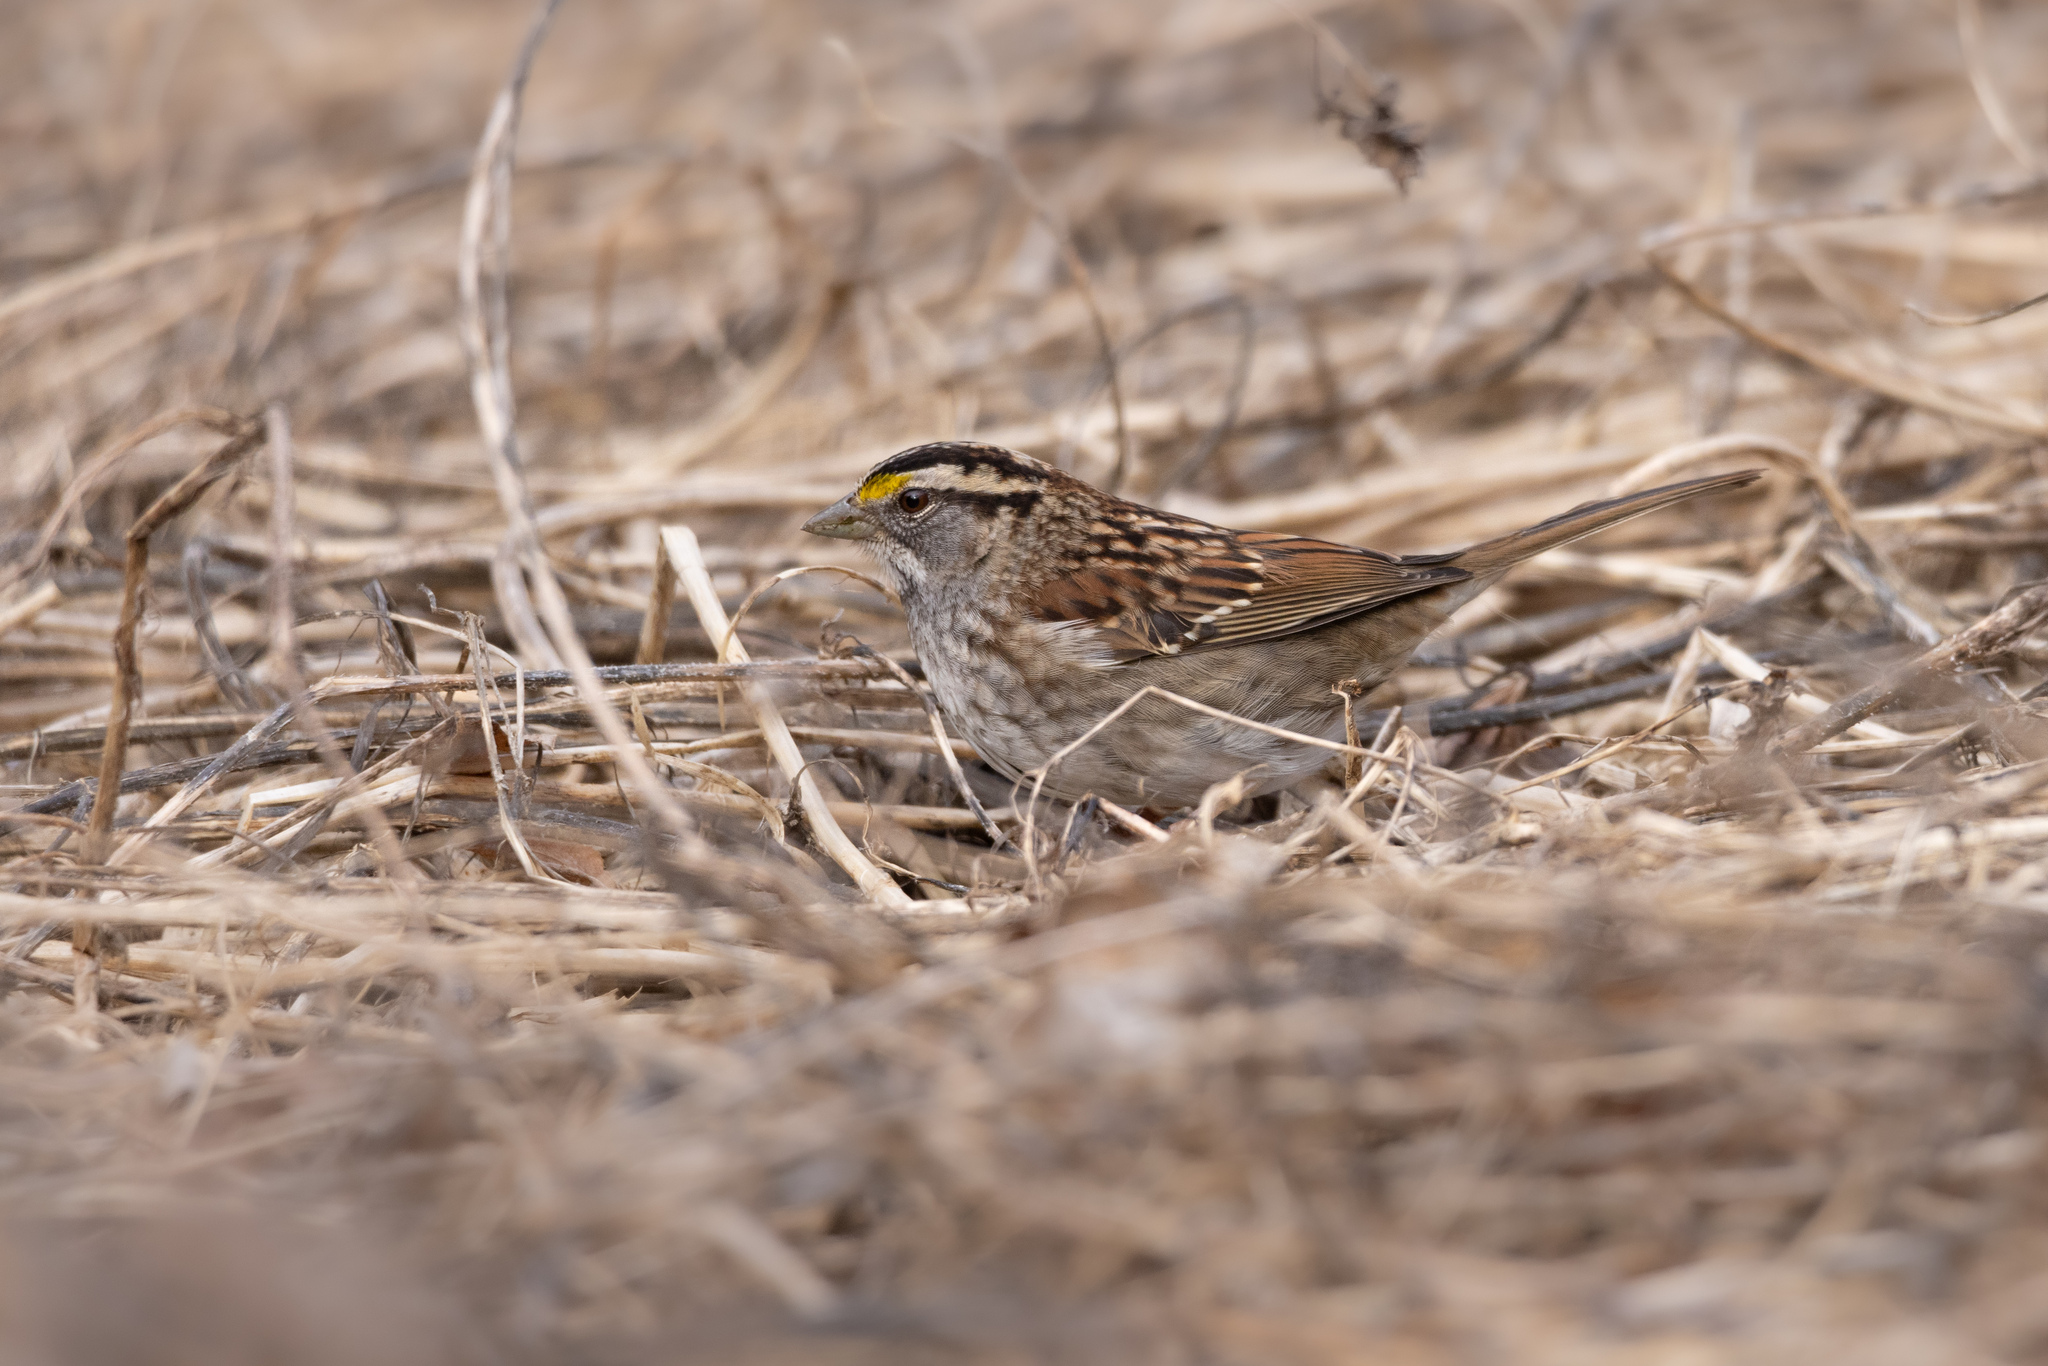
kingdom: Animalia
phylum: Chordata
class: Aves
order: Passeriformes
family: Passerellidae
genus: Zonotrichia
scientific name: Zonotrichia albicollis
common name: White-throated sparrow
